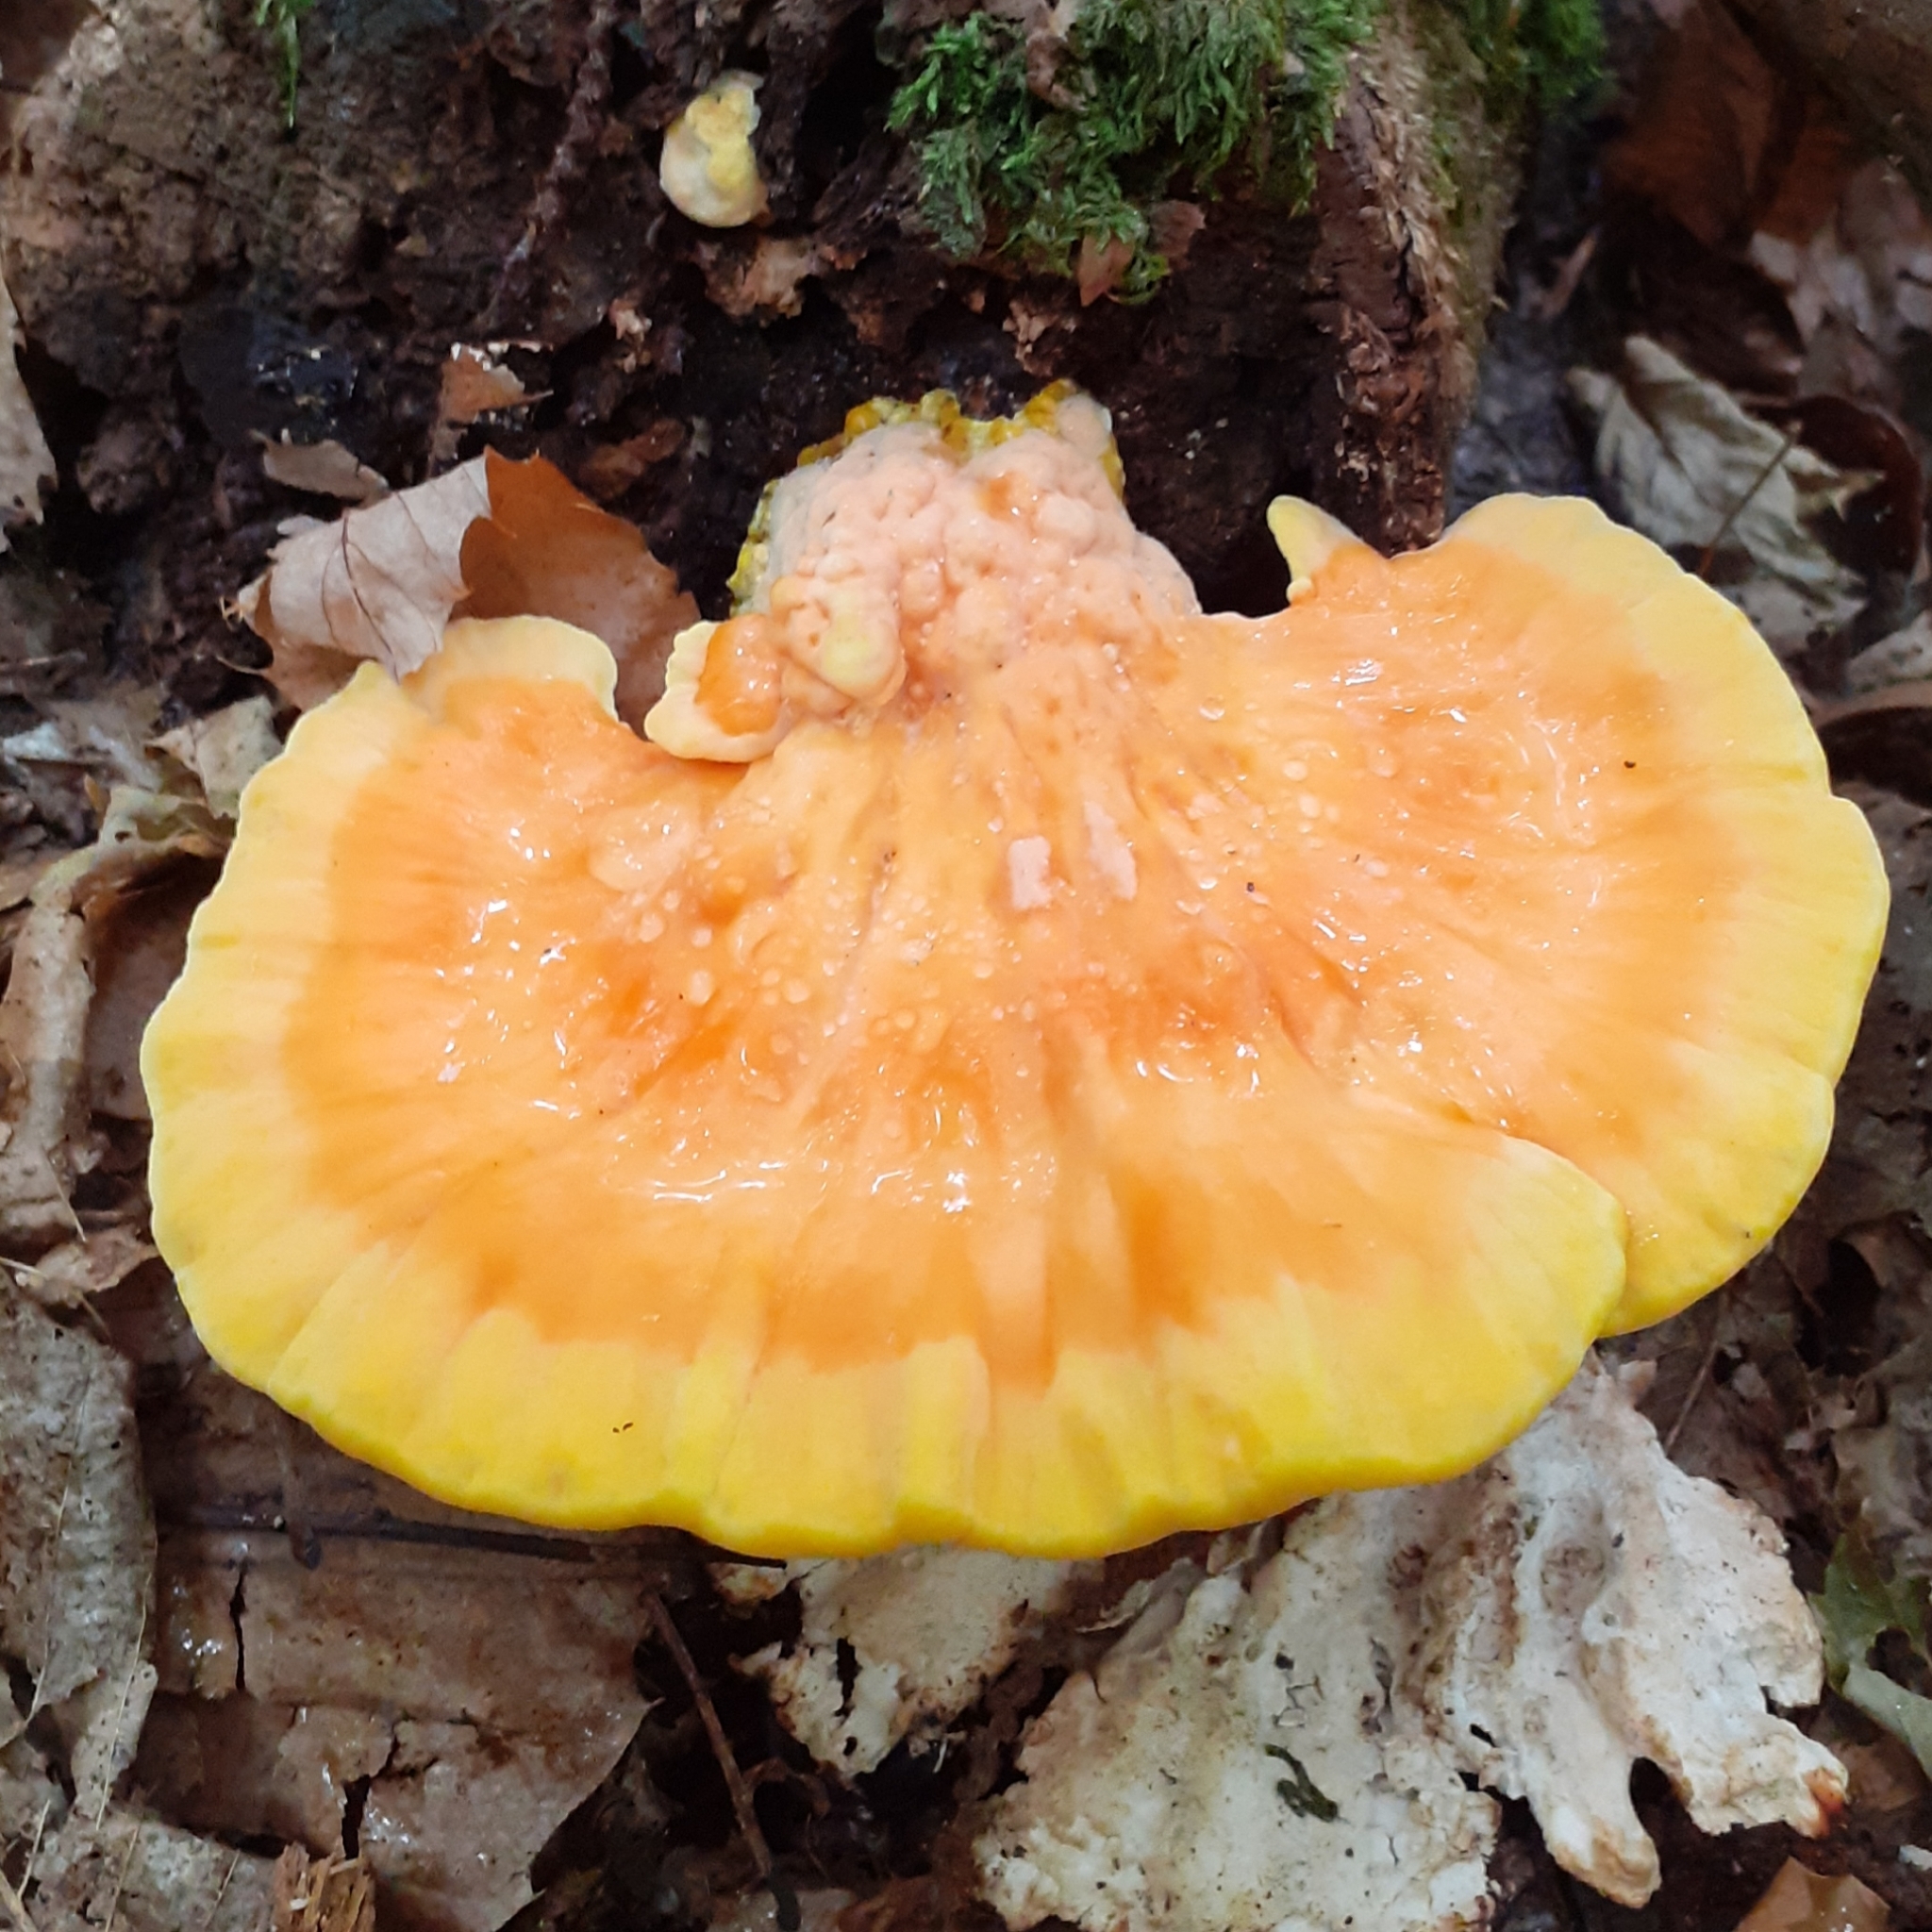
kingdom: Fungi
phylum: Basidiomycota
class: Agaricomycetes
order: Polyporales
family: Laetiporaceae
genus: Laetiporus
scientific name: Laetiporus sulphureus
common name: Chicken of the woods
